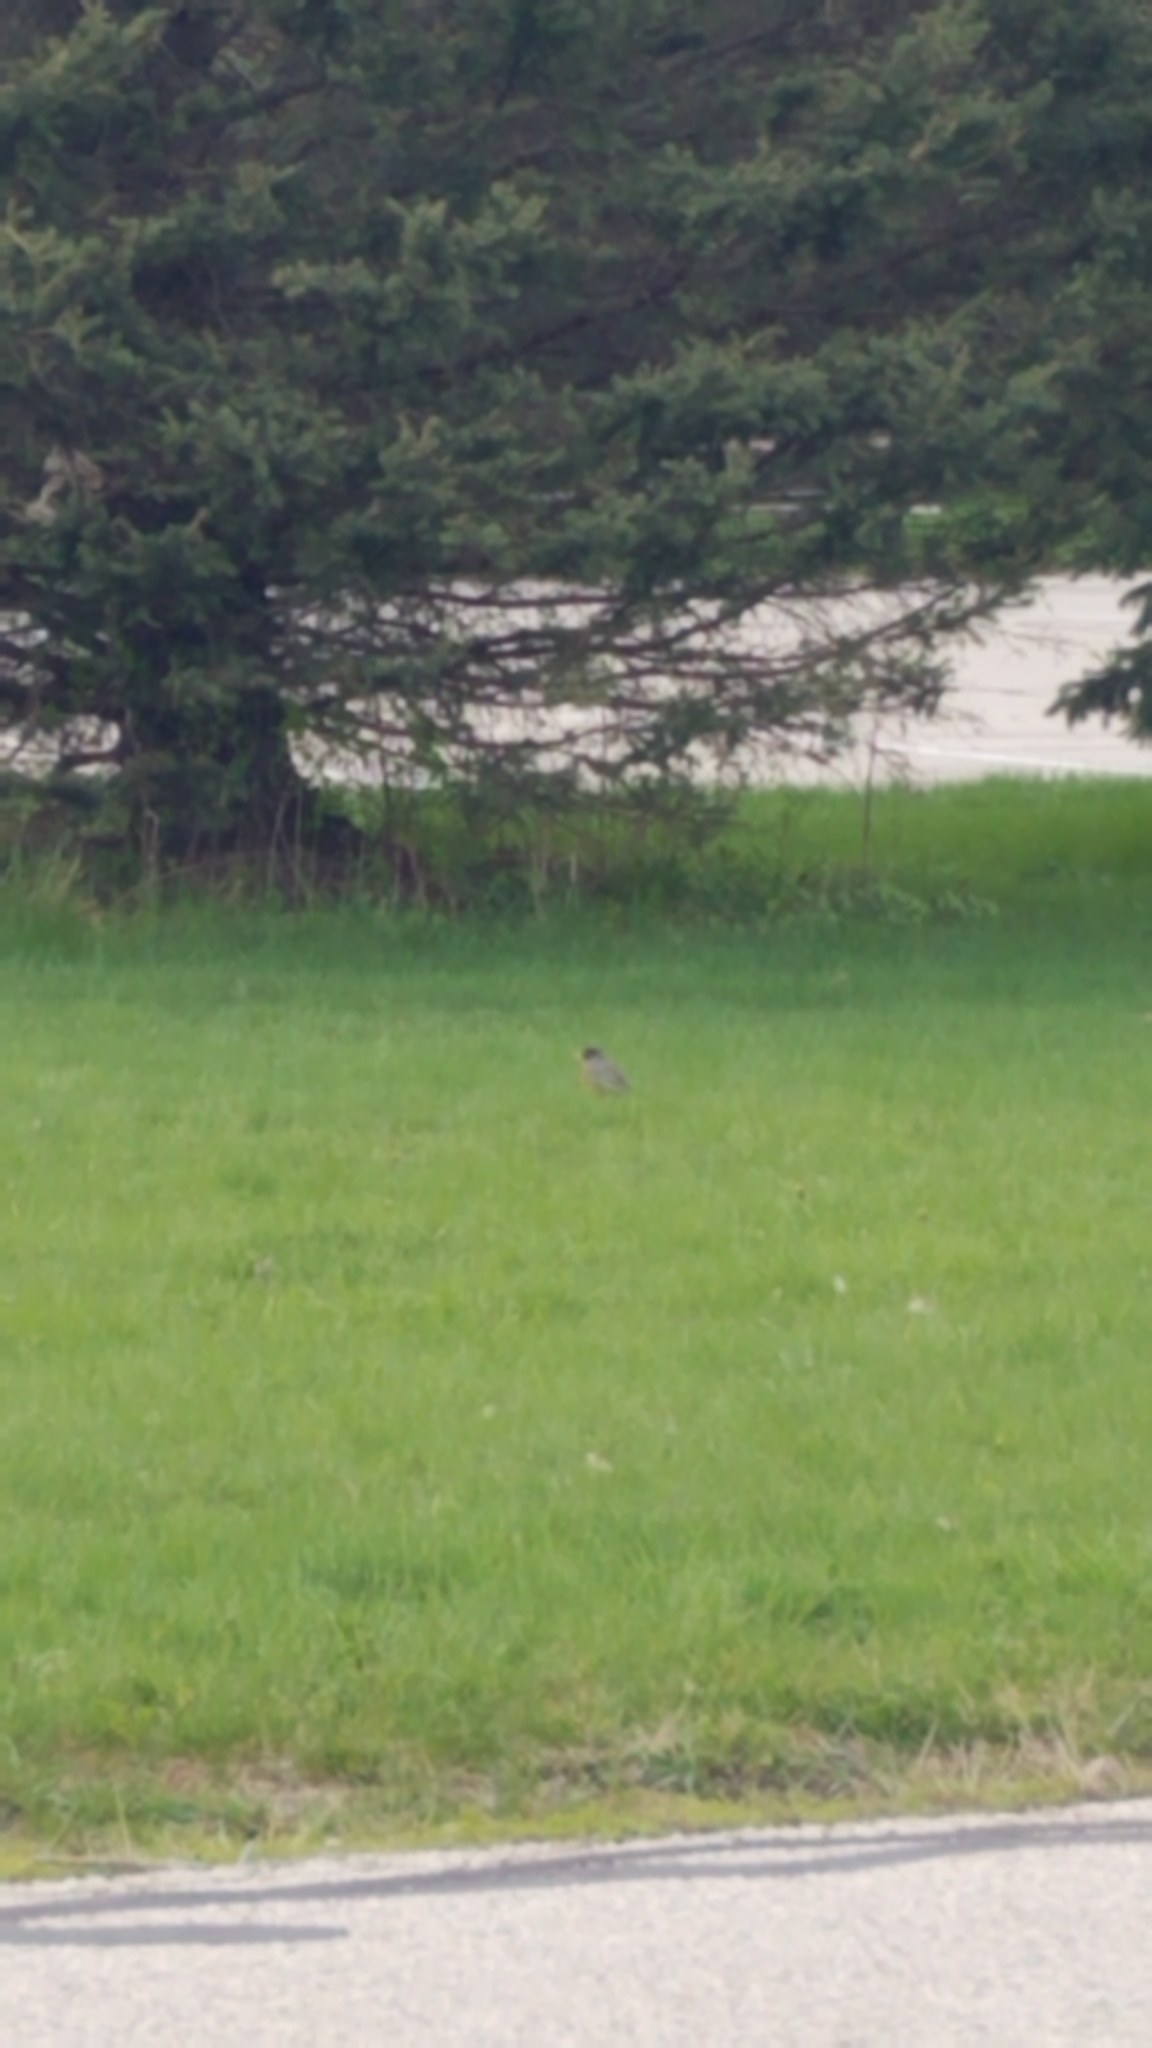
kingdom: Animalia
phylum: Chordata
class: Aves
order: Passeriformes
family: Turdidae
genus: Turdus
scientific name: Turdus migratorius
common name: American robin
